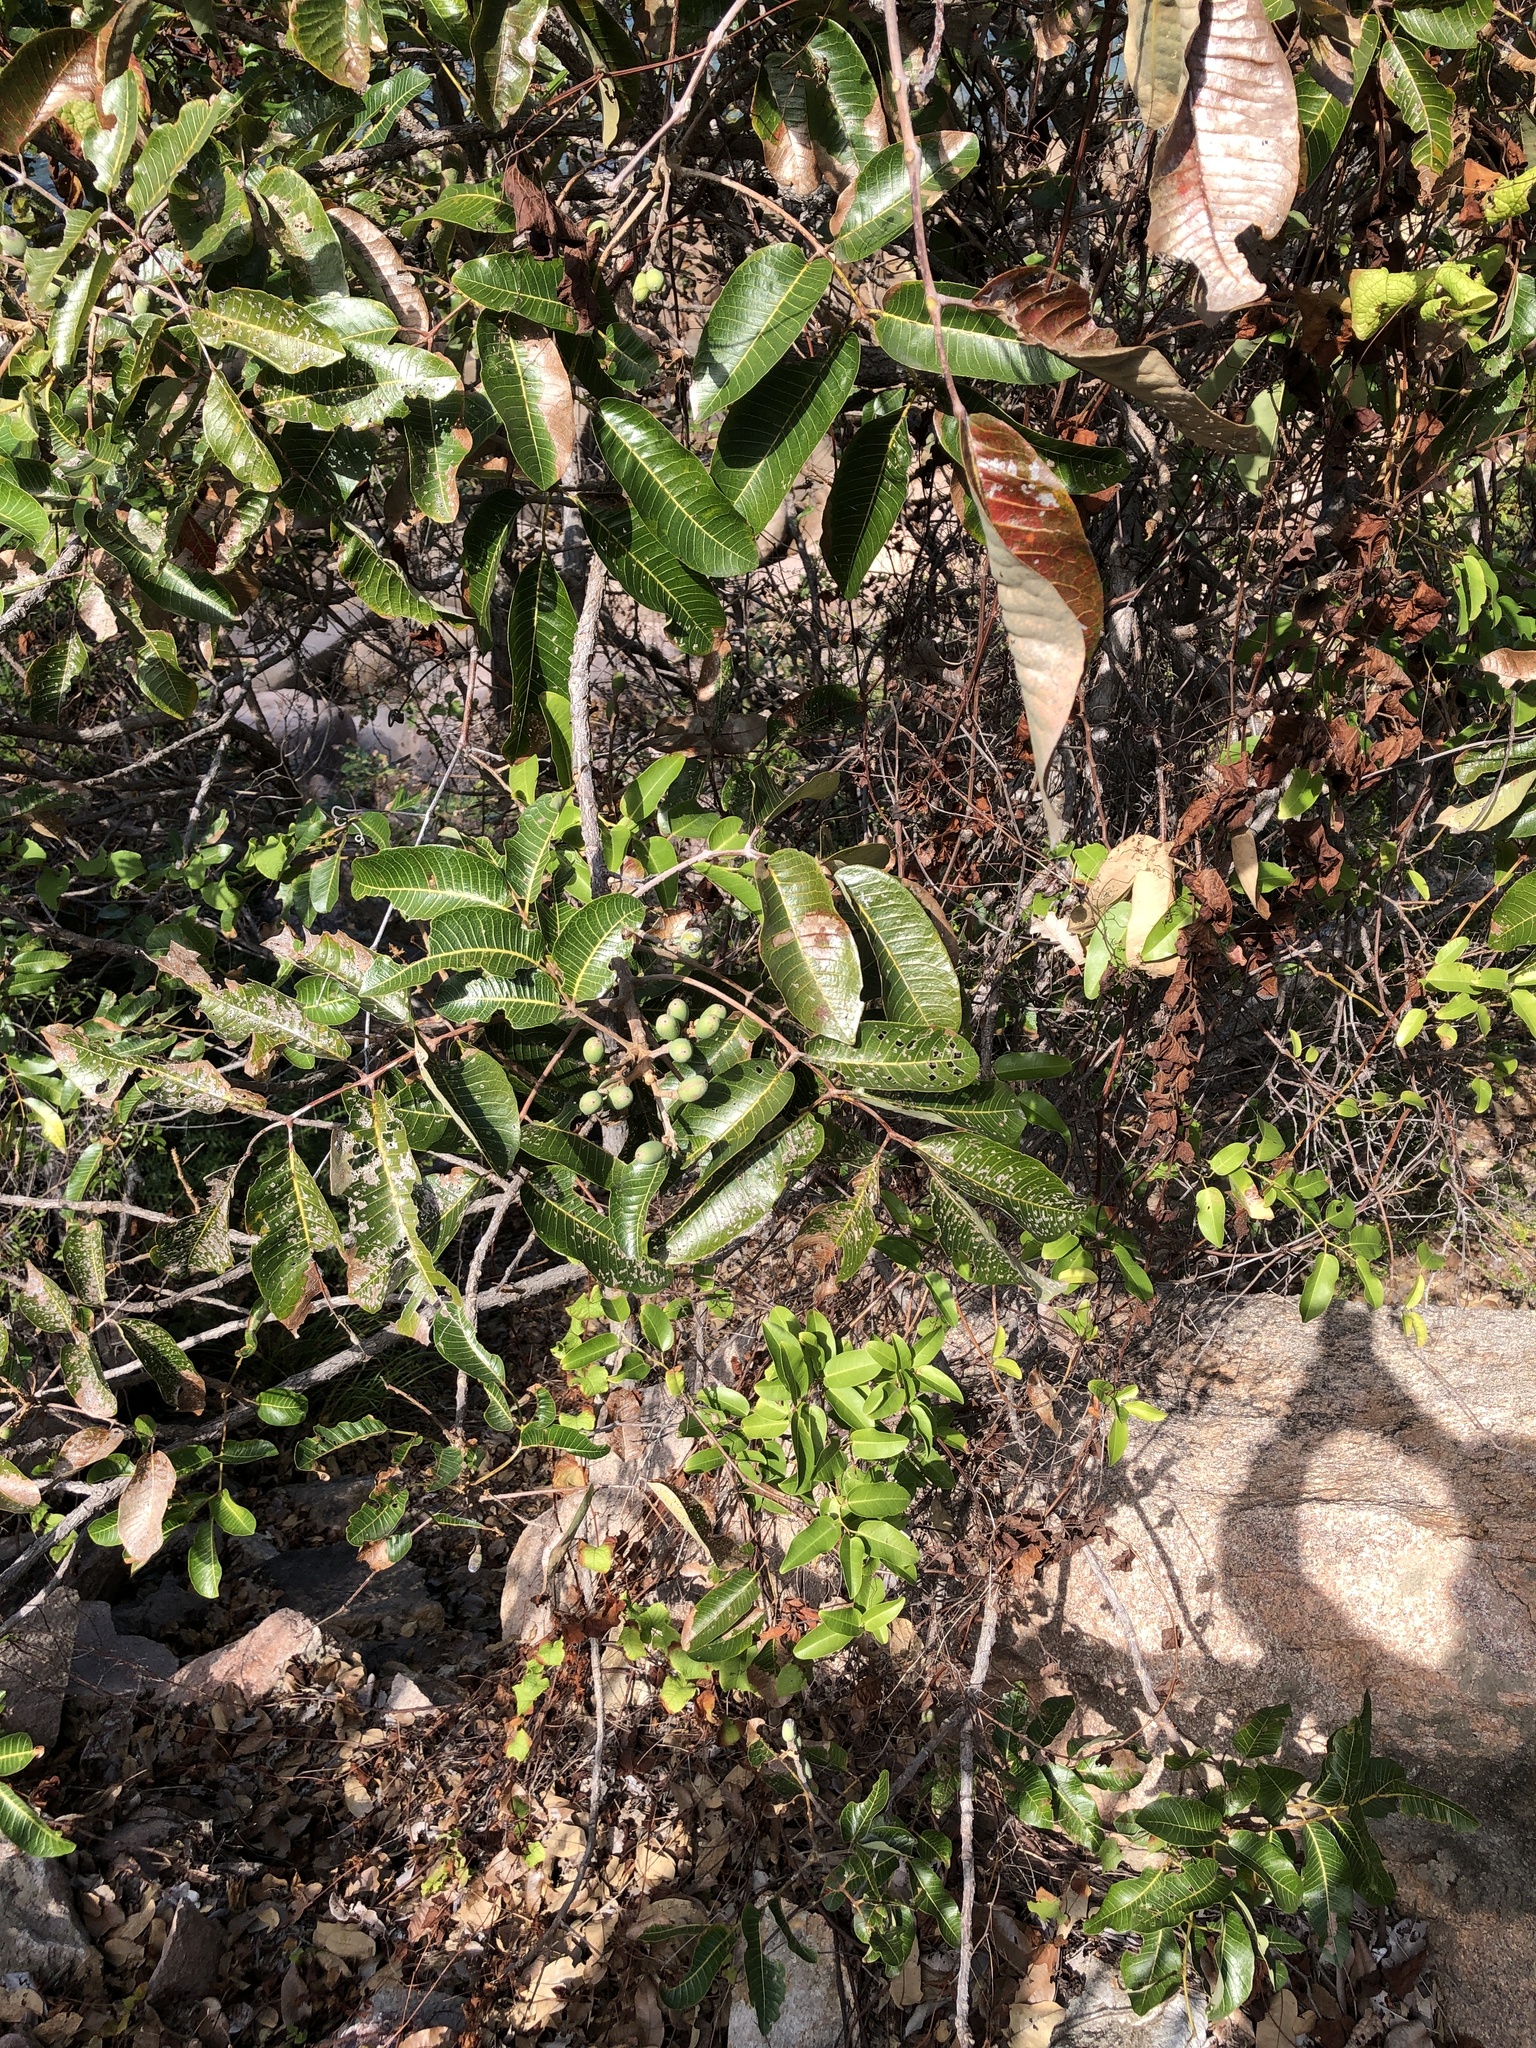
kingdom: Plantae
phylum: Tracheophyta
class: Magnoliopsida
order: Sapindales
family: Burseraceae
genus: Canarium
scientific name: Canarium australianum
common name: Island white-beech
